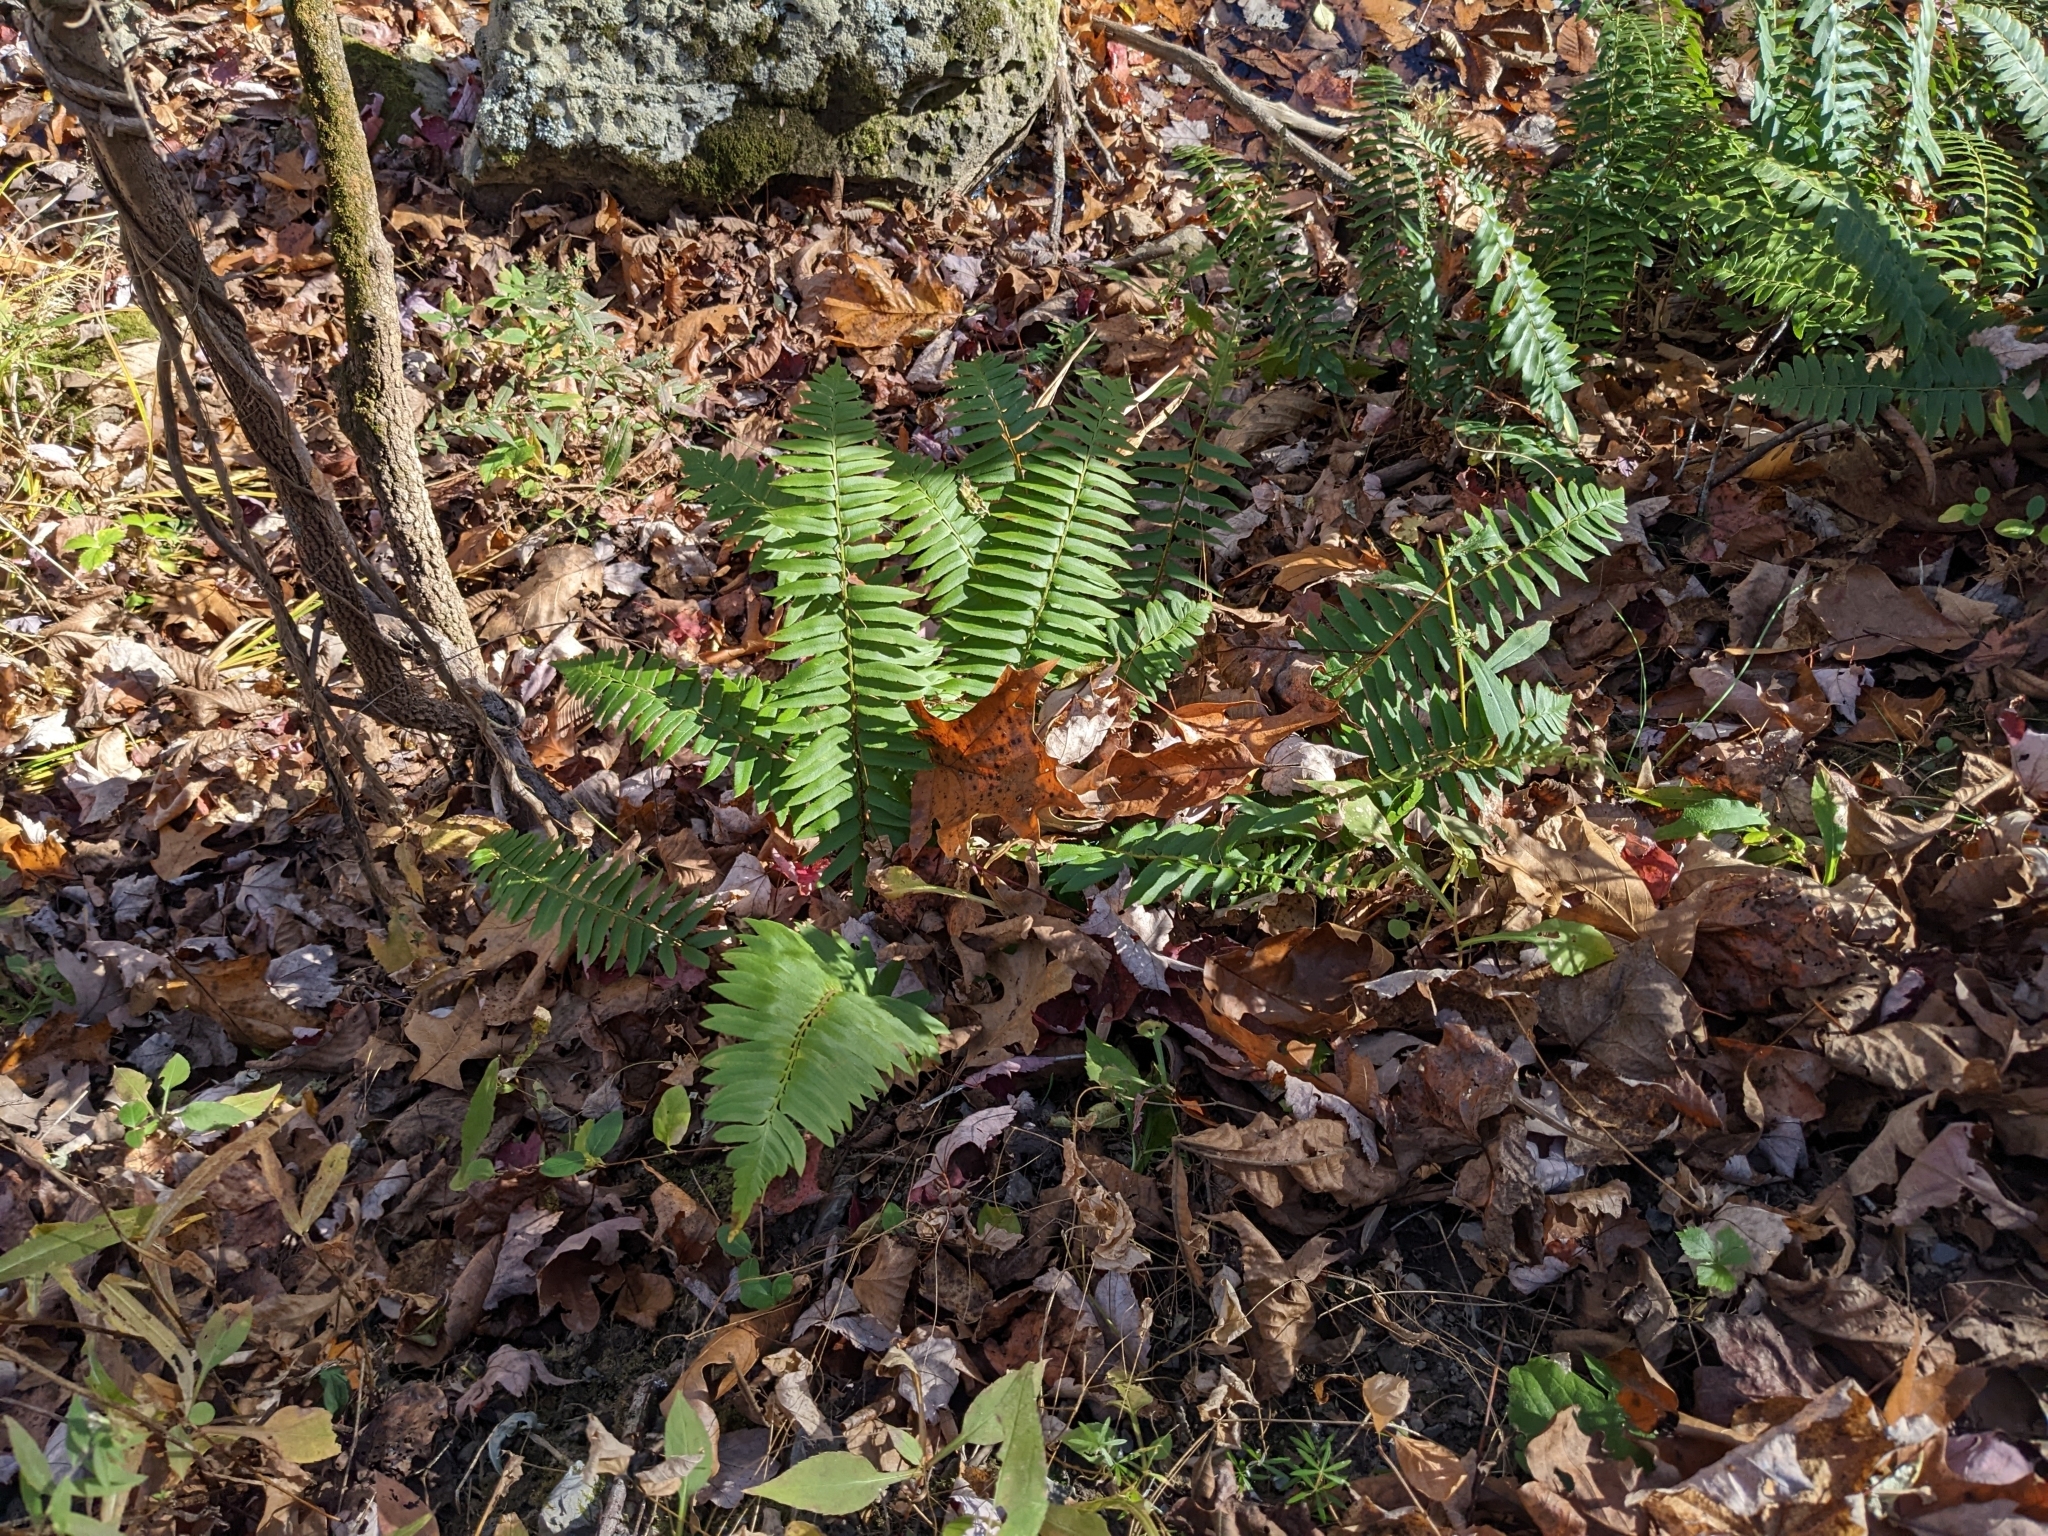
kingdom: Plantae
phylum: Tracheophyta
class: Polypodiopsida
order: Polypodiales
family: Dryopteridaceae
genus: Polystichum
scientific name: Polystichum acrostichoides
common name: Christmas fern
